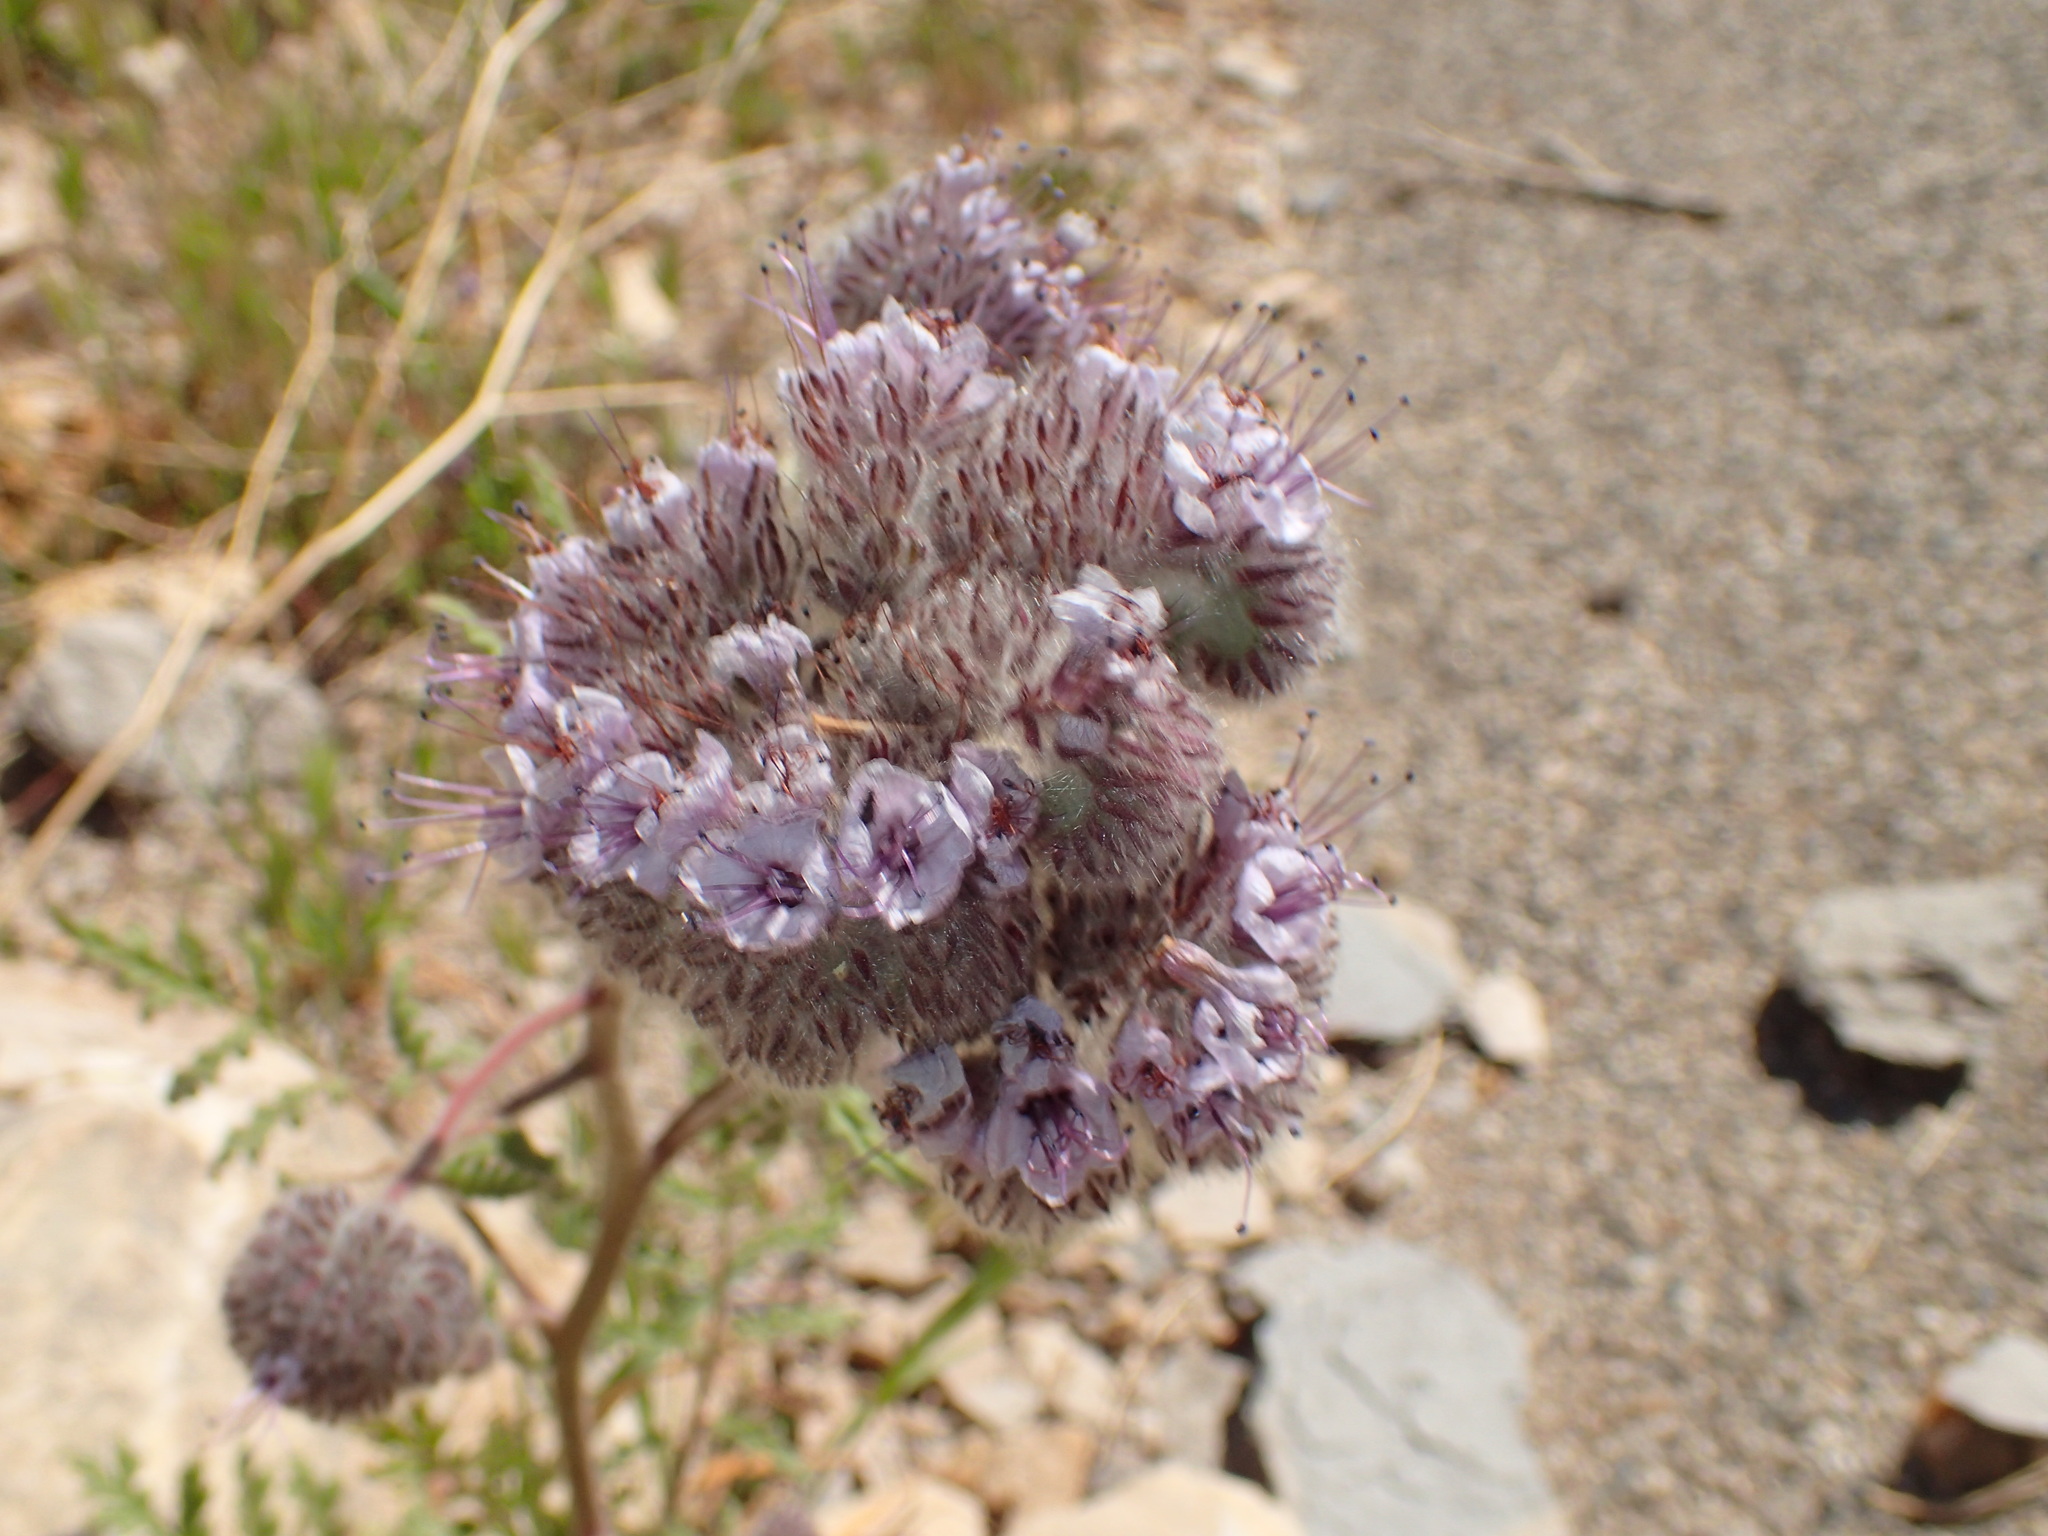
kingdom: Plantae
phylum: Tracheophyta
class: Magnoliopsida
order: Boraginales
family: Hydrophyllaceae
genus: Phacelia
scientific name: Phacelia hubbyi
